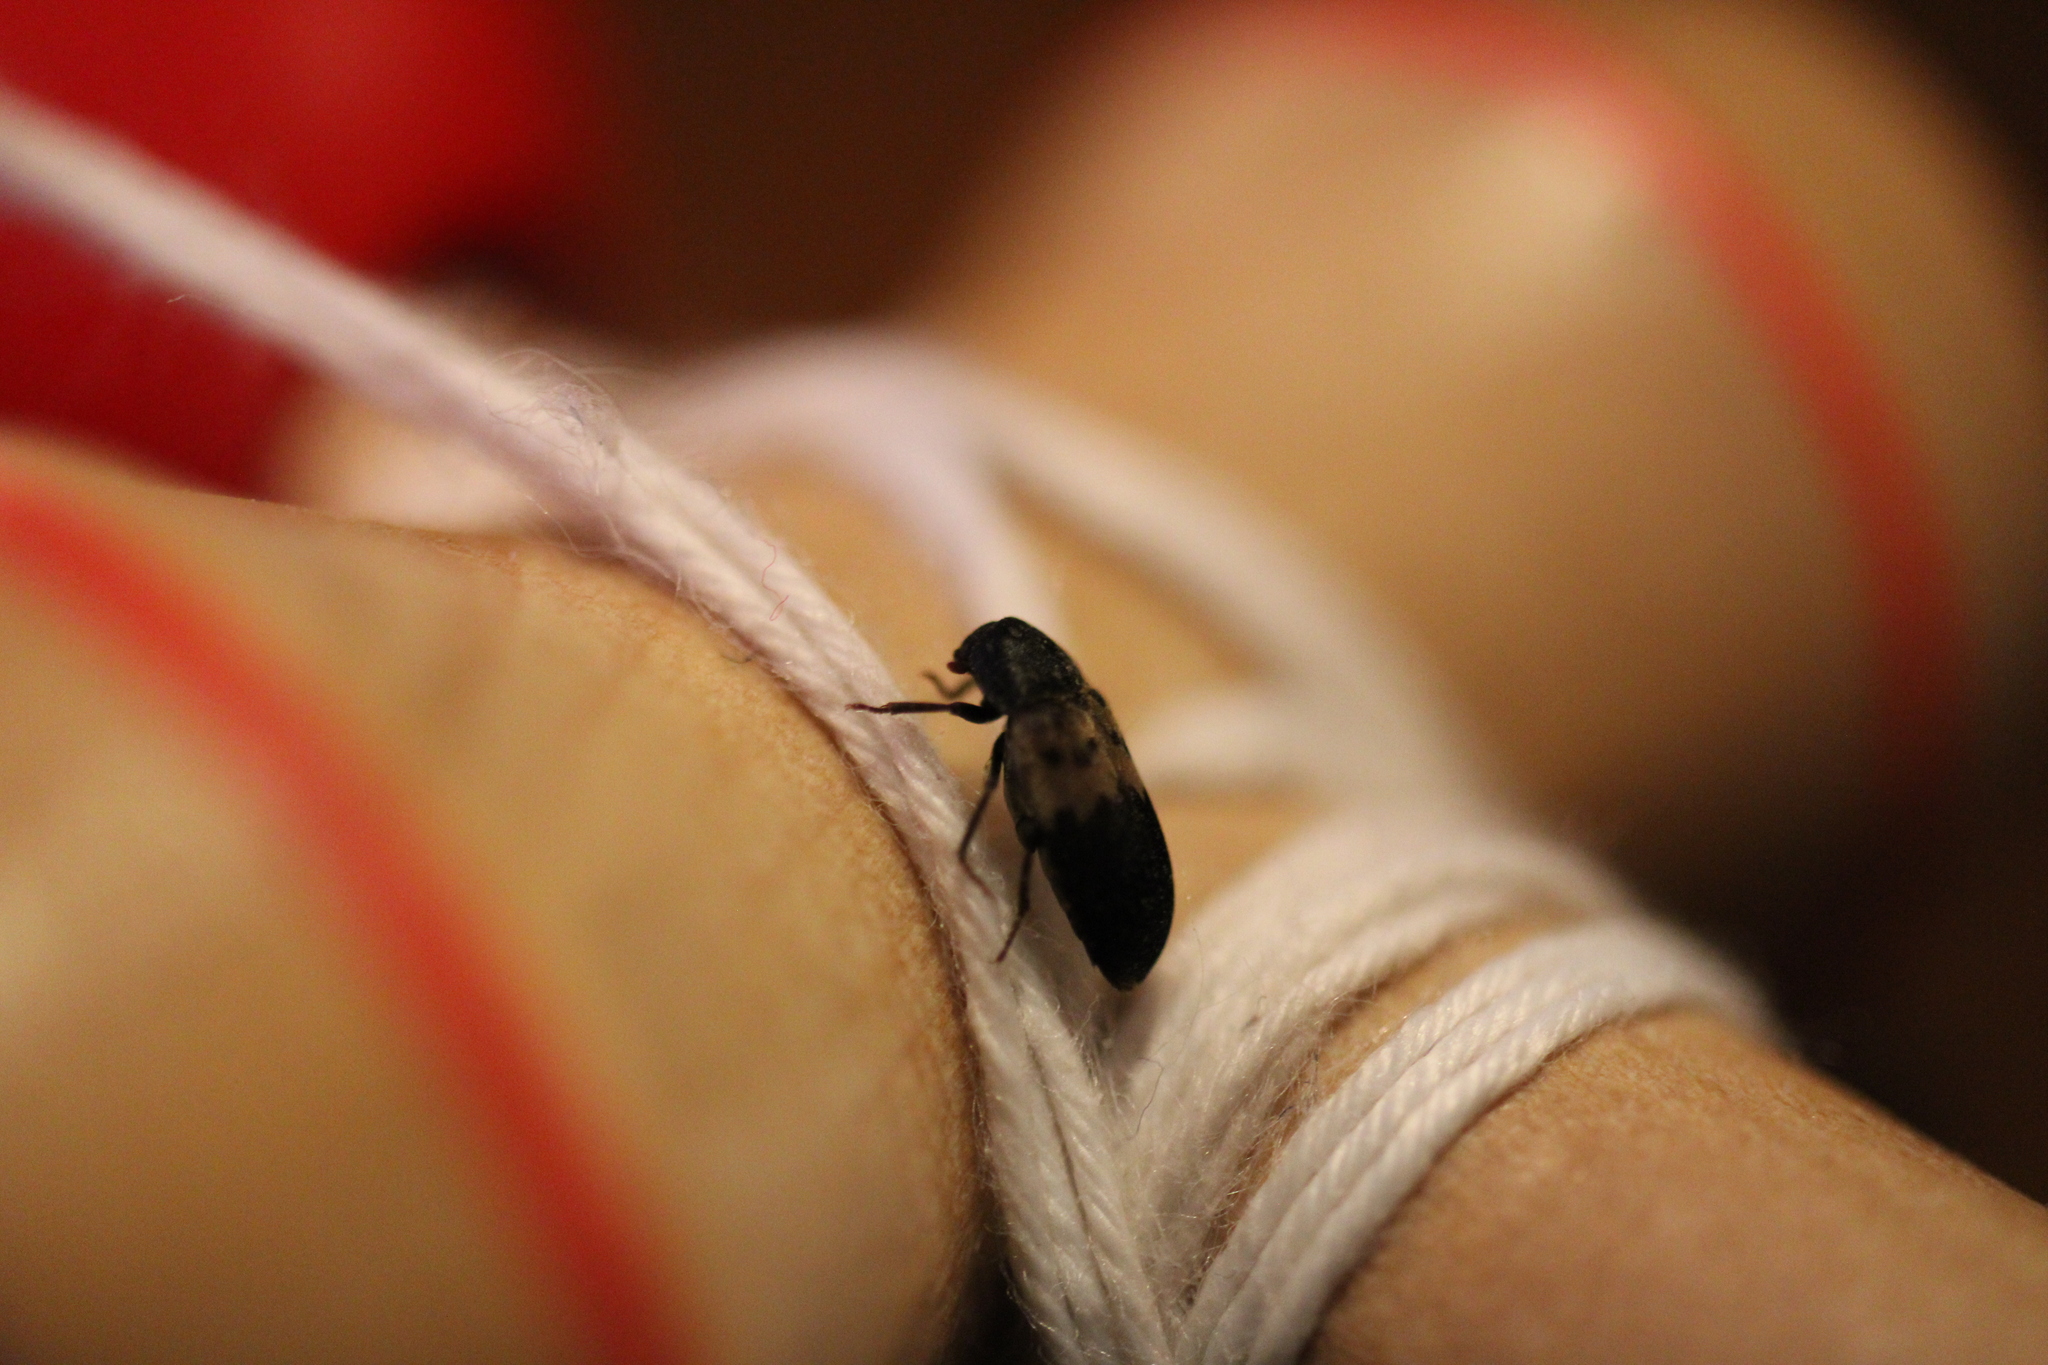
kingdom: Animalia
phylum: Arthropoda
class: Insecta
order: Coleoptera
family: Dermestidae
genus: Dermestes
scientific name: Dermestes lardarius
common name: Larder beetle
